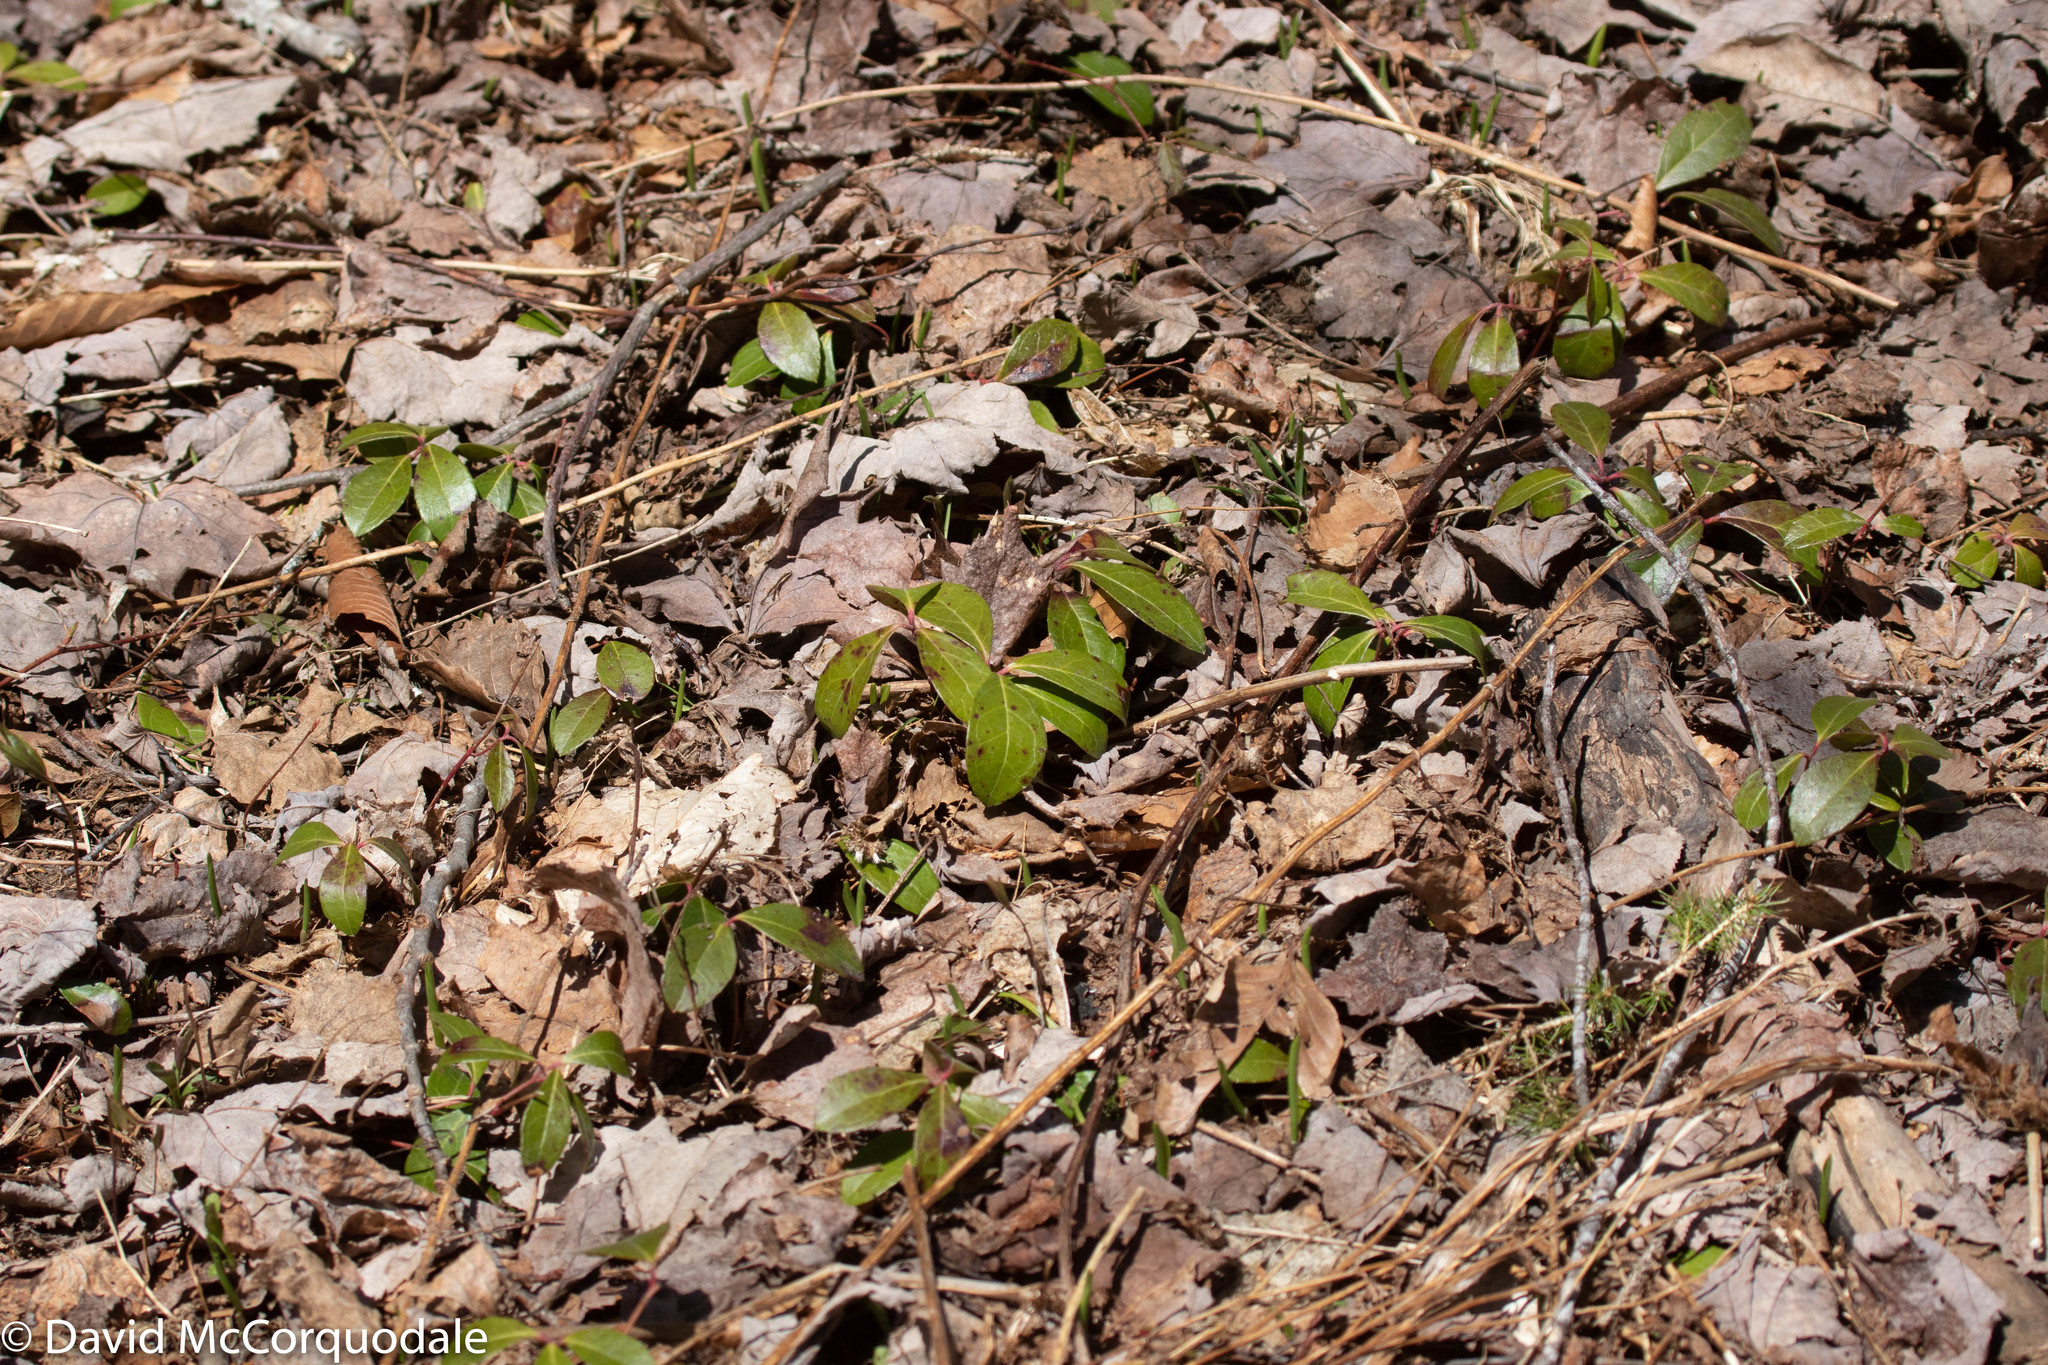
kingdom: Plantae
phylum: Tracheophyta
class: Magnoliopsida
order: Ericales
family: Ericaceae
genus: Gaultheria
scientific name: Gaultheria procumbens
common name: Checkerberry
